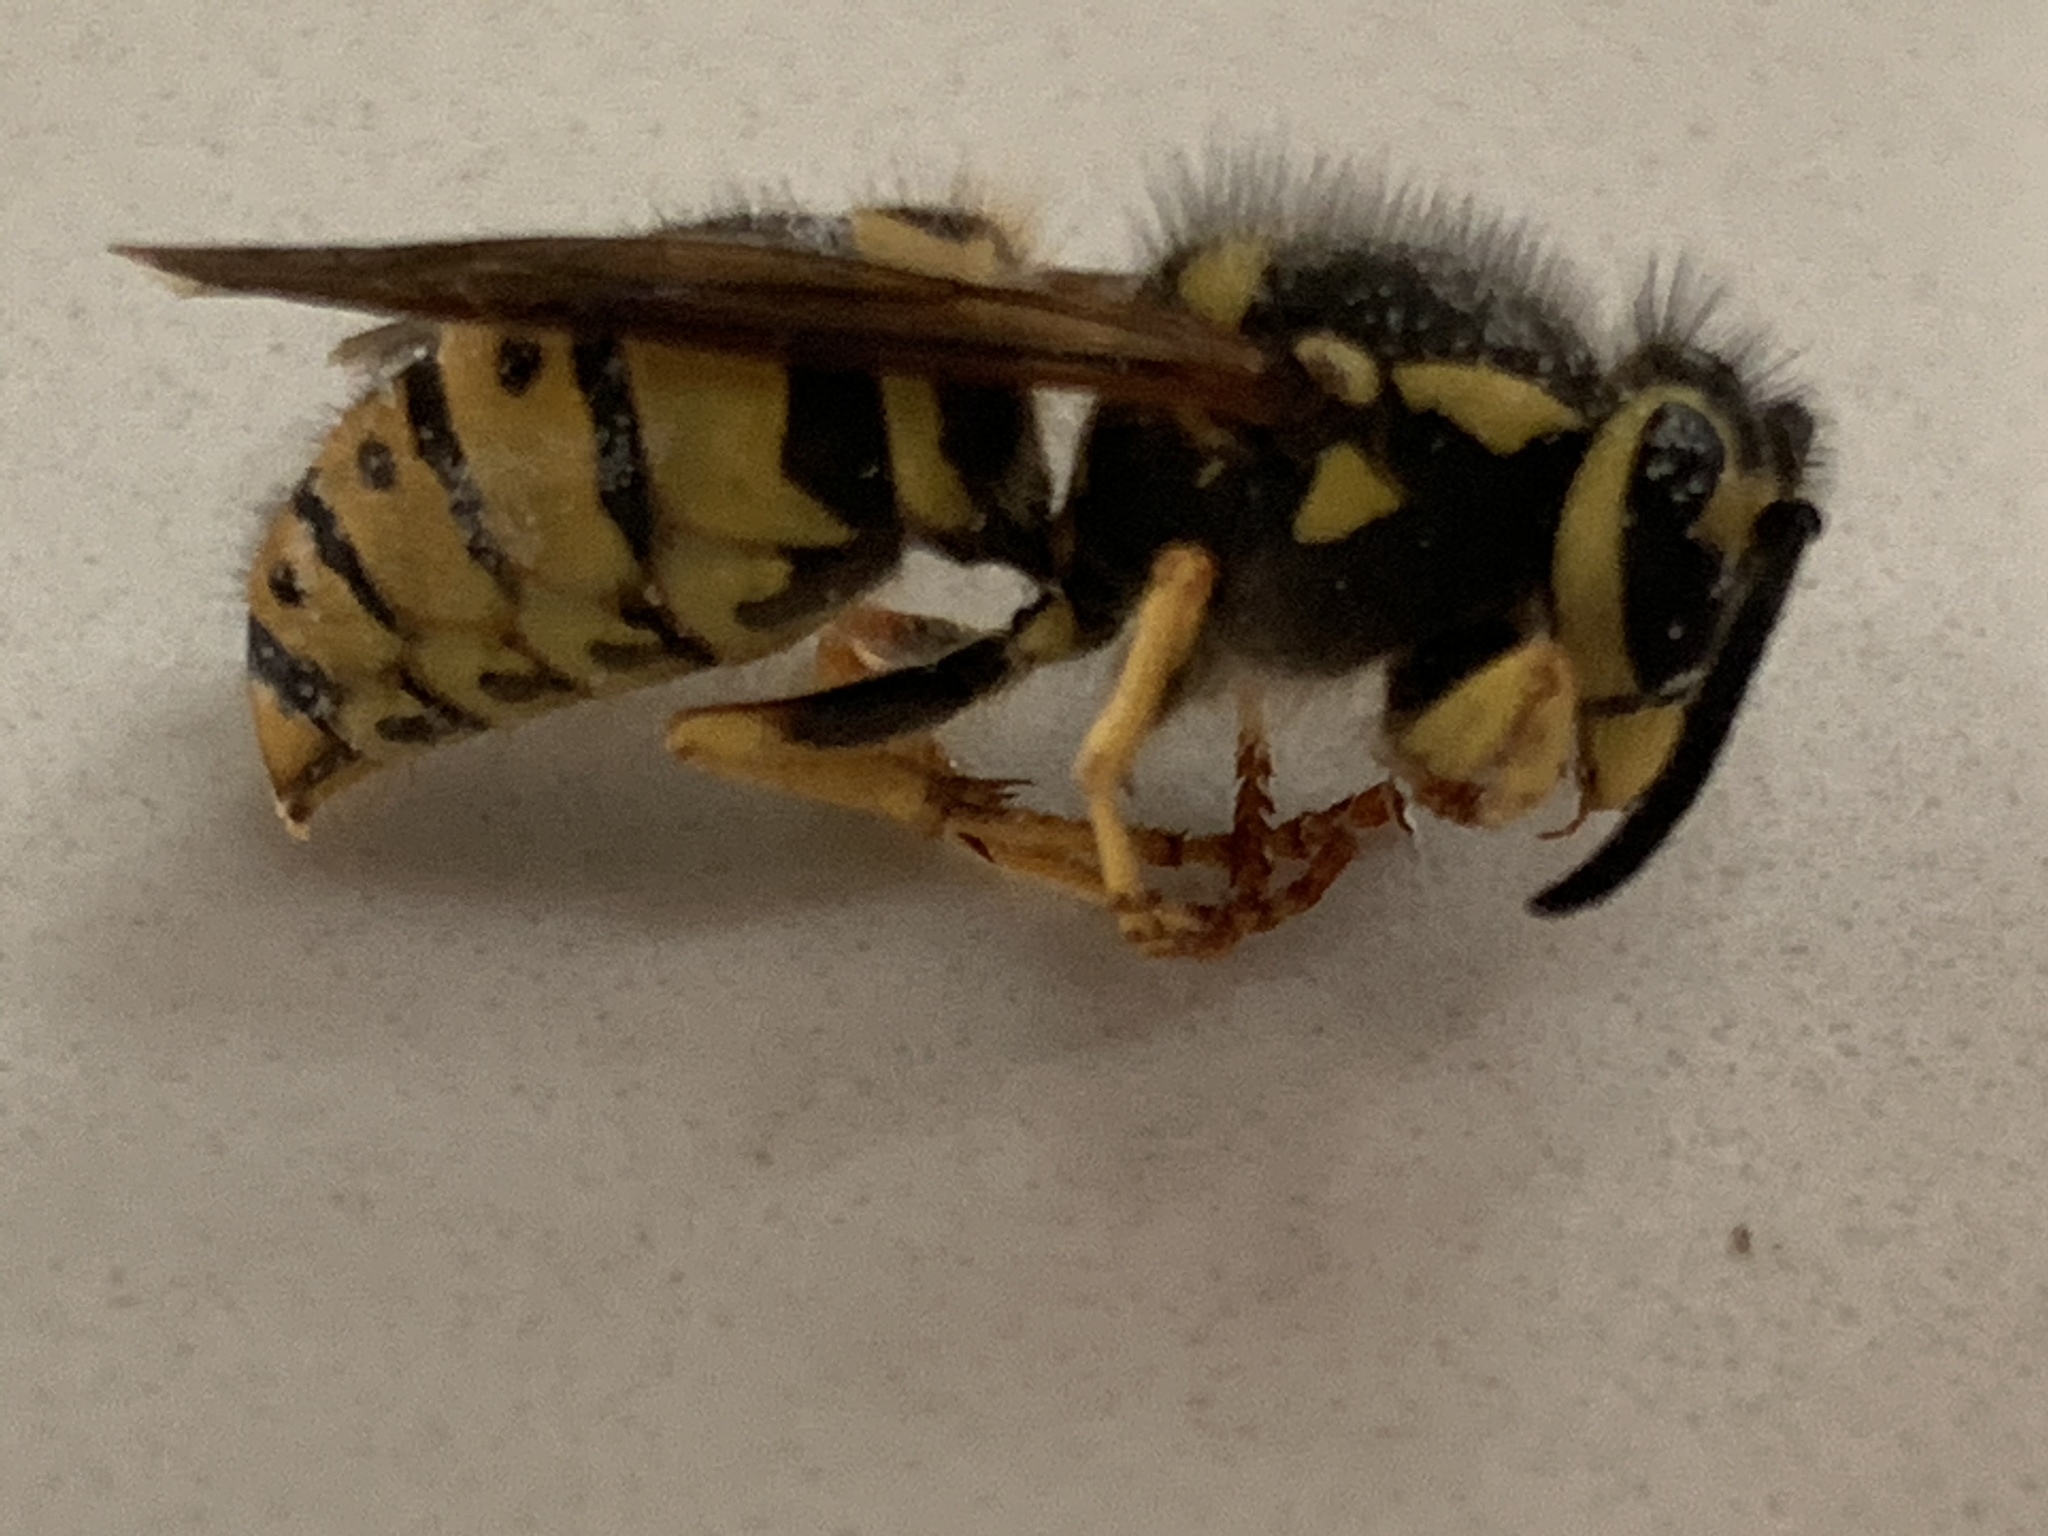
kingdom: Animalia
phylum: Arthropoda
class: Insecta
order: Hymenoptera
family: Vespidae
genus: Vespula
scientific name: Vespula pensylvanica
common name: Western yellowjacket
